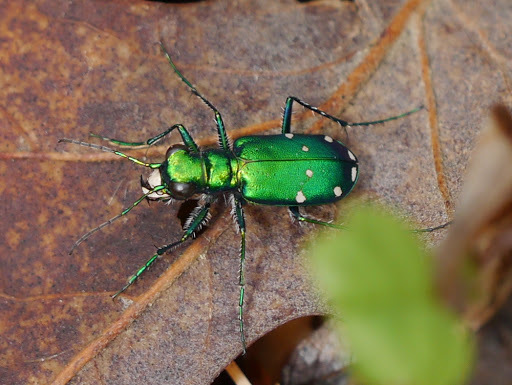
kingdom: Animalia
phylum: Arthropoda
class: Insecta
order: Coleoptera
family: Carabidae
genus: Cicindela
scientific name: Cicindela sexguttata
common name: Six-spotted tiger beetle
